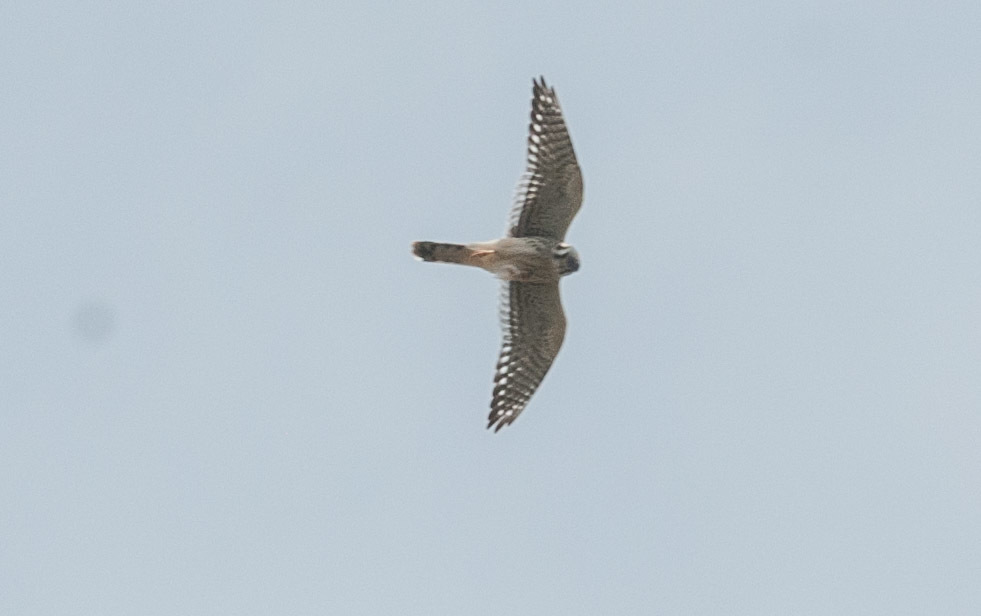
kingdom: Animalia
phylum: Chordata
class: Aves
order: Falconiformes
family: Falconidae
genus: Falco
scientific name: Falco sparverius
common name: American kestrel
